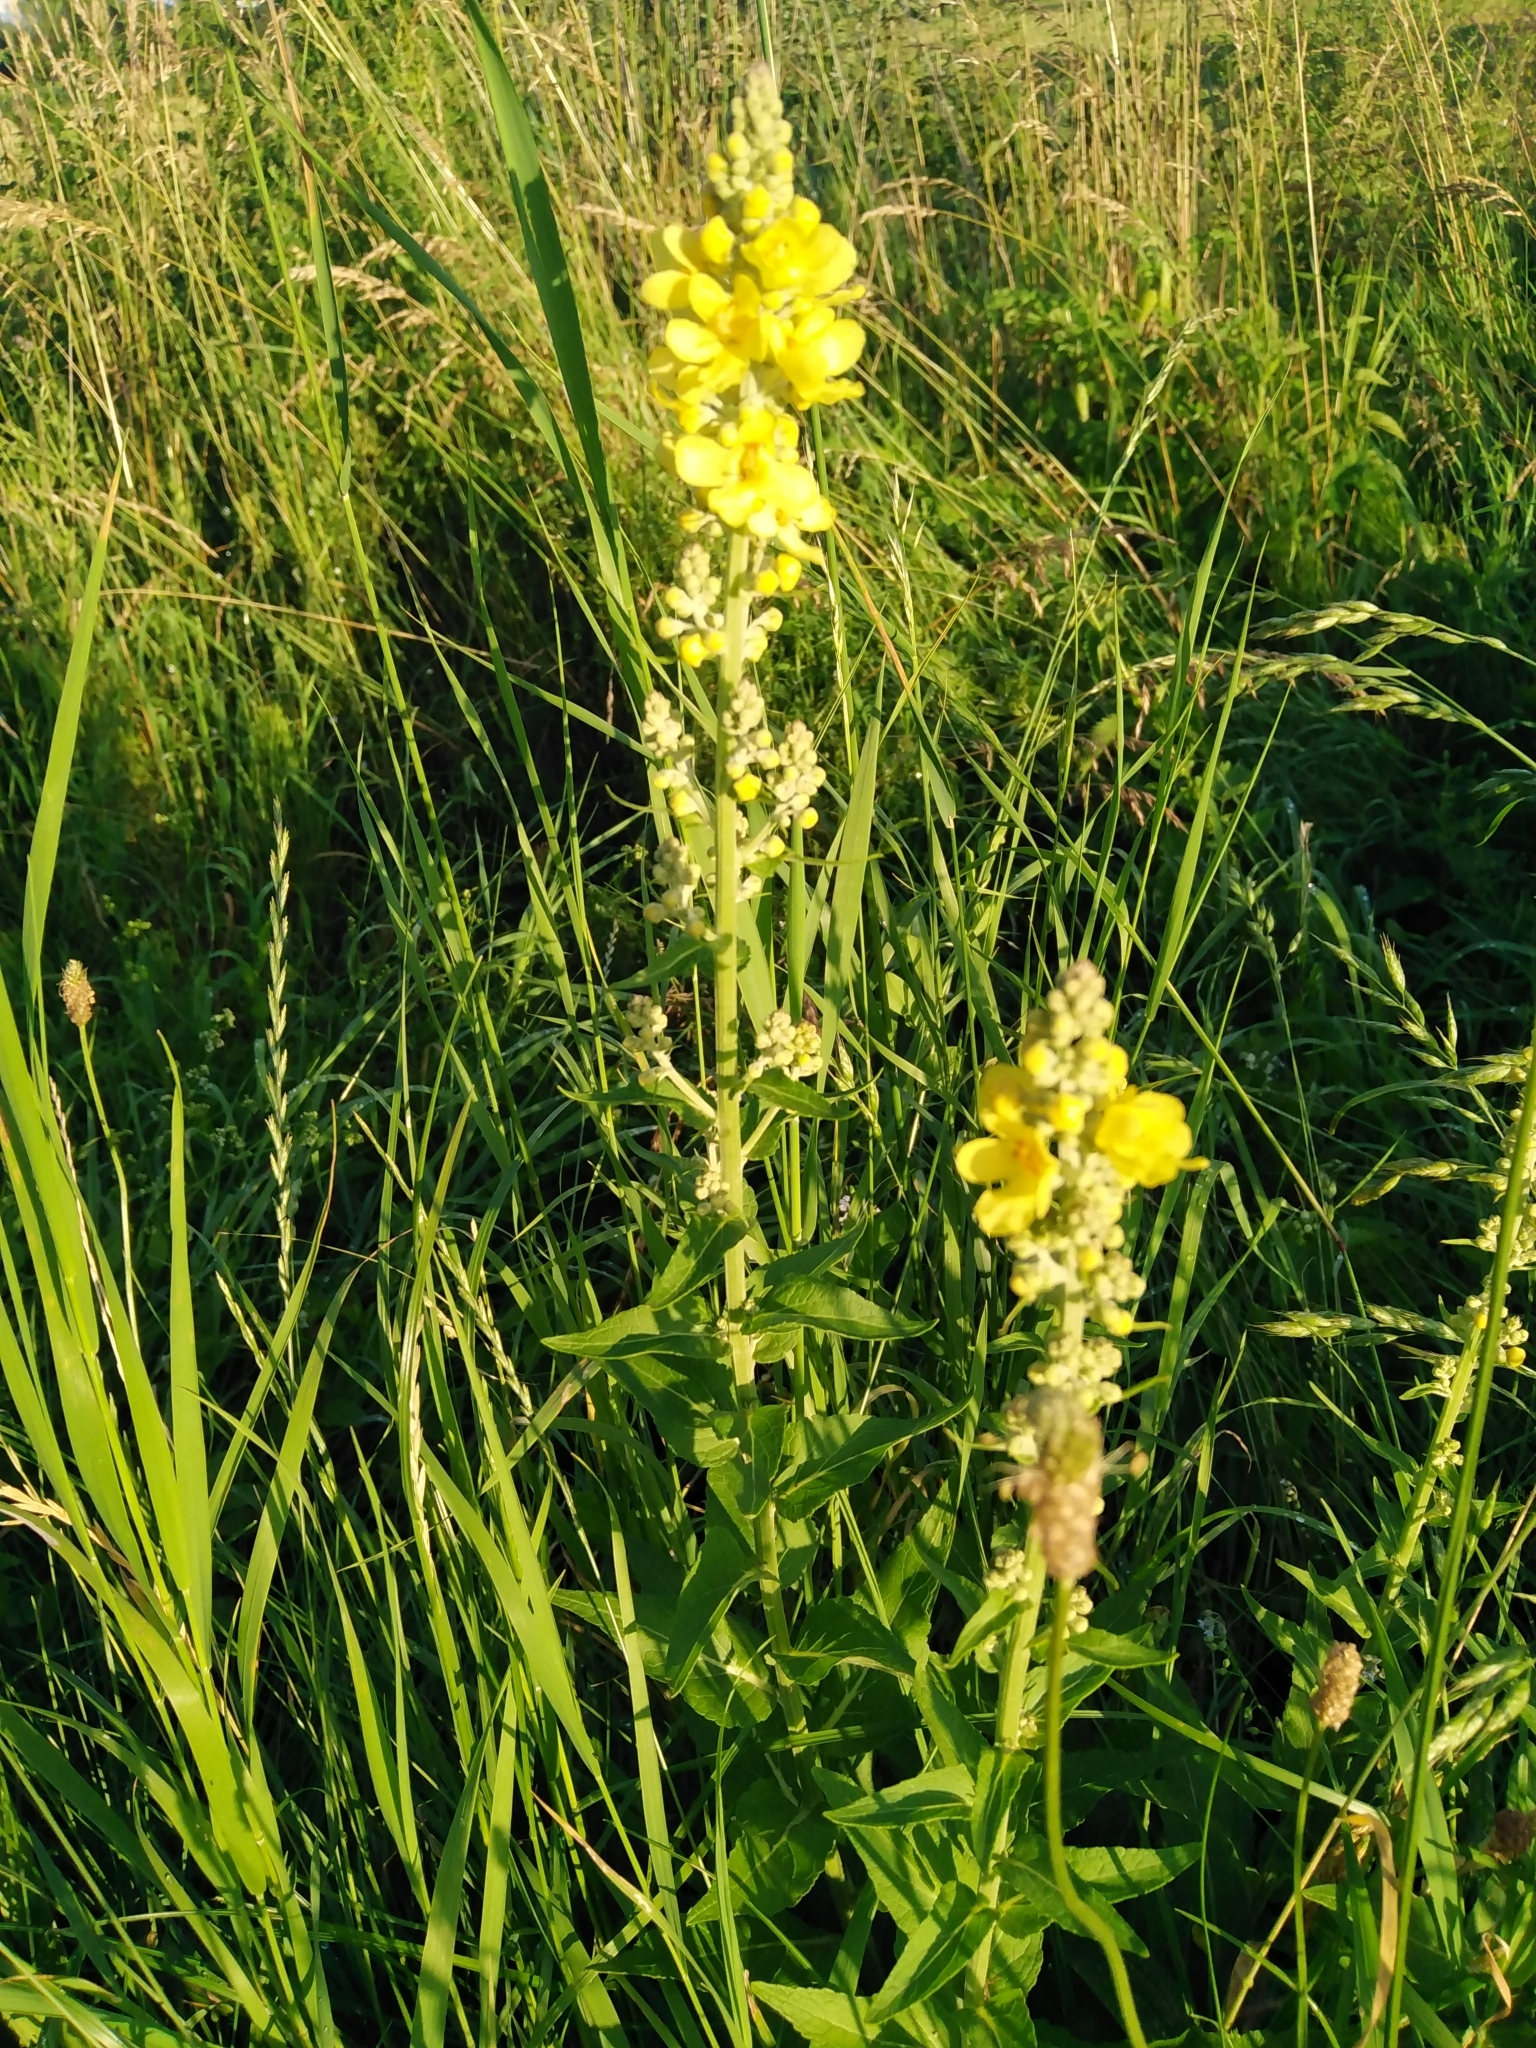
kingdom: Plantae
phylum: Tracheophyta
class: Magnoliopsida
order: Lamiales
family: Scrophulariaceae
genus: Verbascum
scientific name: Verbascum lychnitis
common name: White mullein
